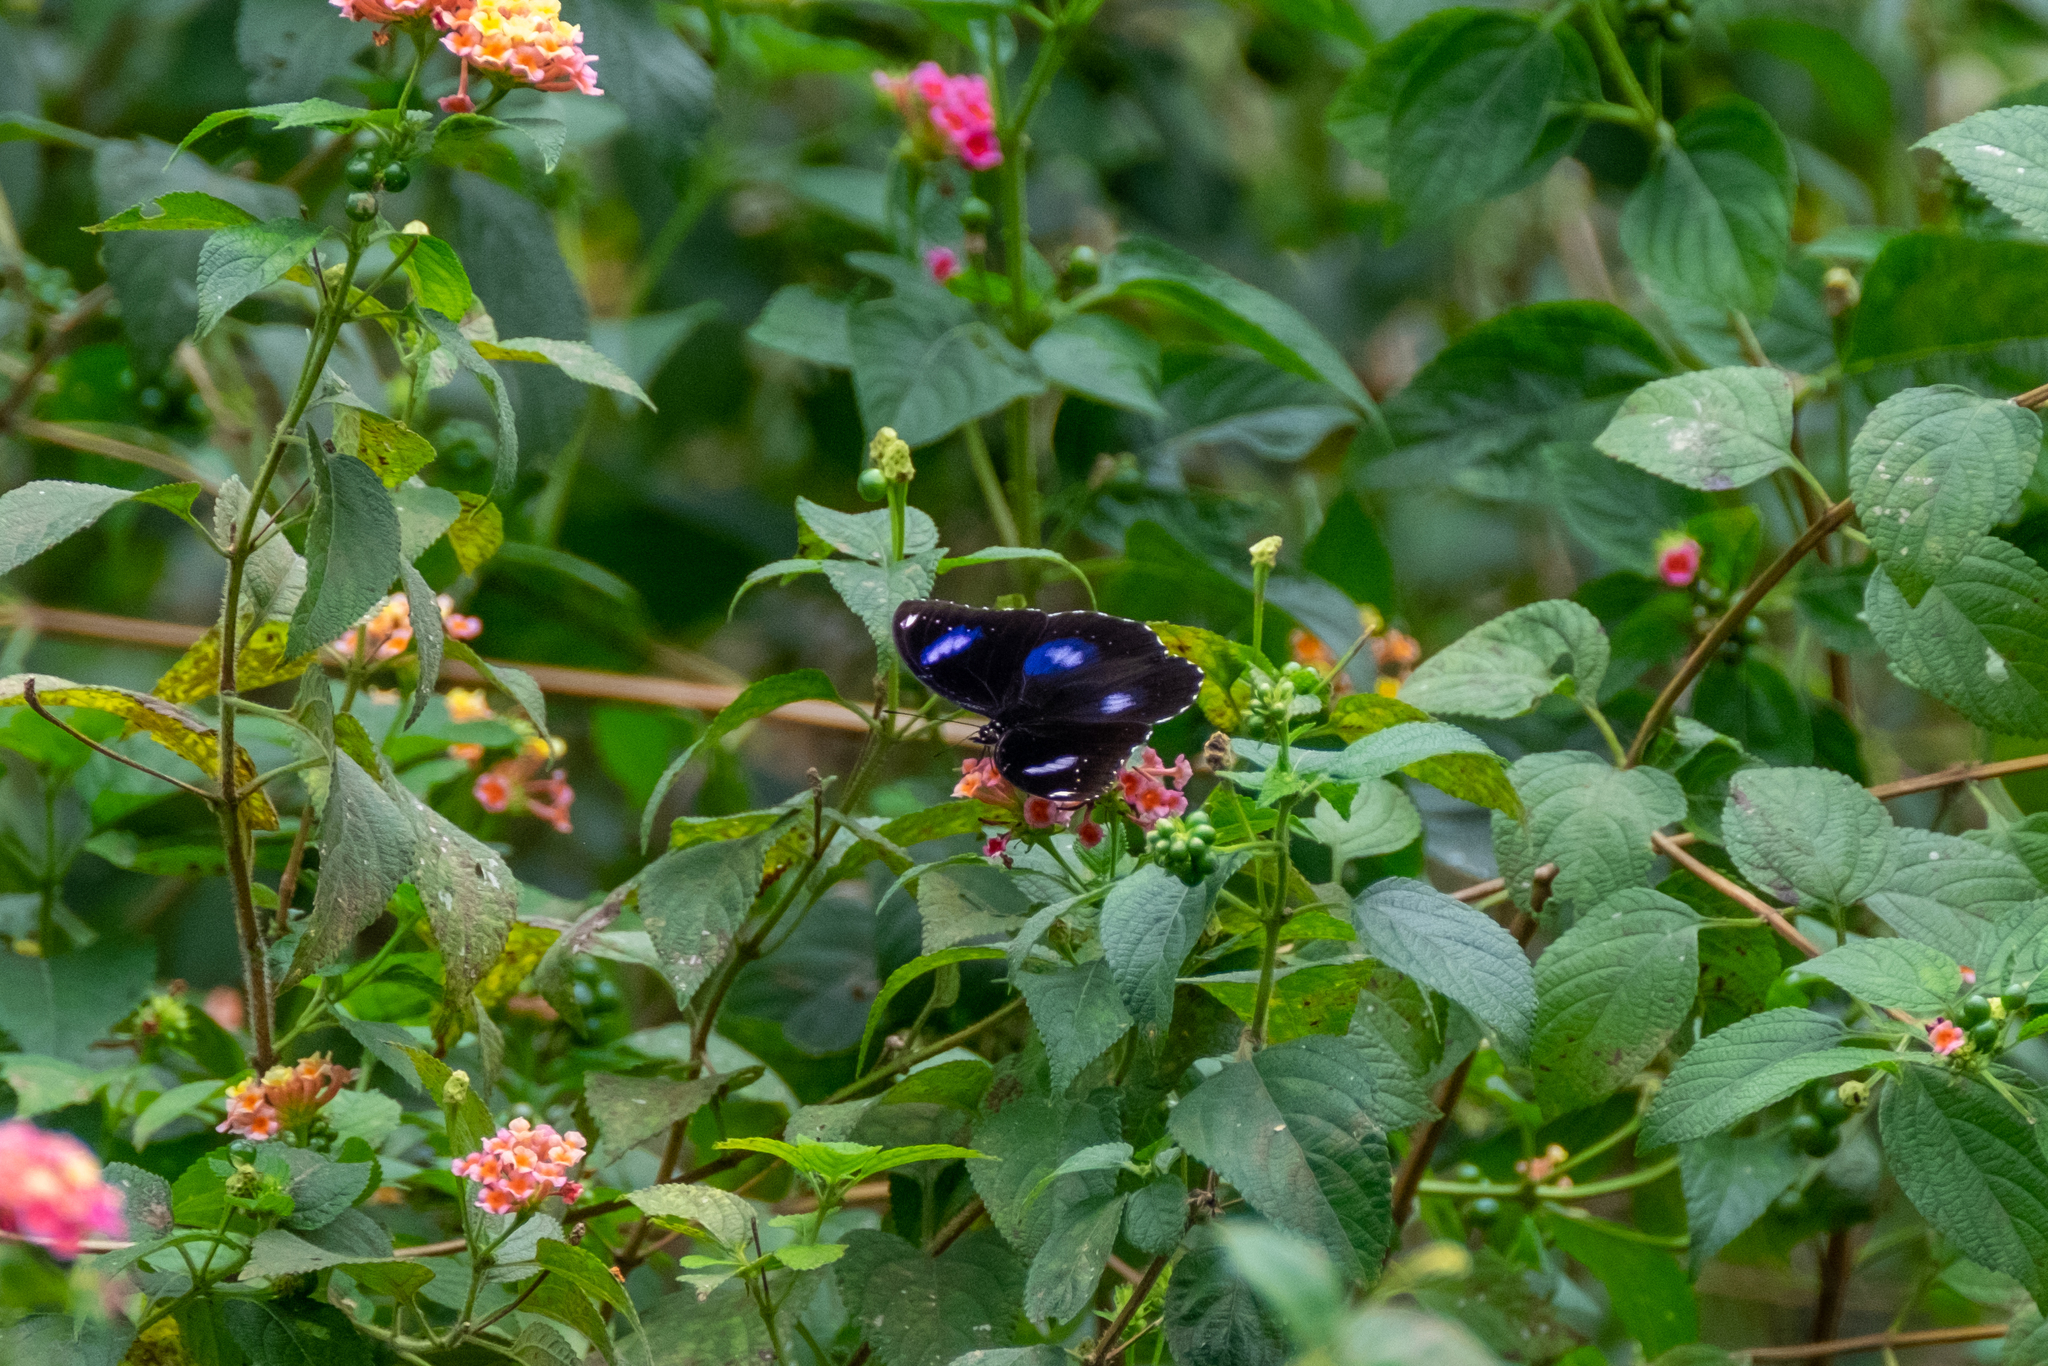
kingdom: Animalia
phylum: Arthropoda
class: Insecta
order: Lepidoptera
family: Nymphalidae
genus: Hypolimnas
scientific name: Hypolimnas bolina
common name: Great eggfly
